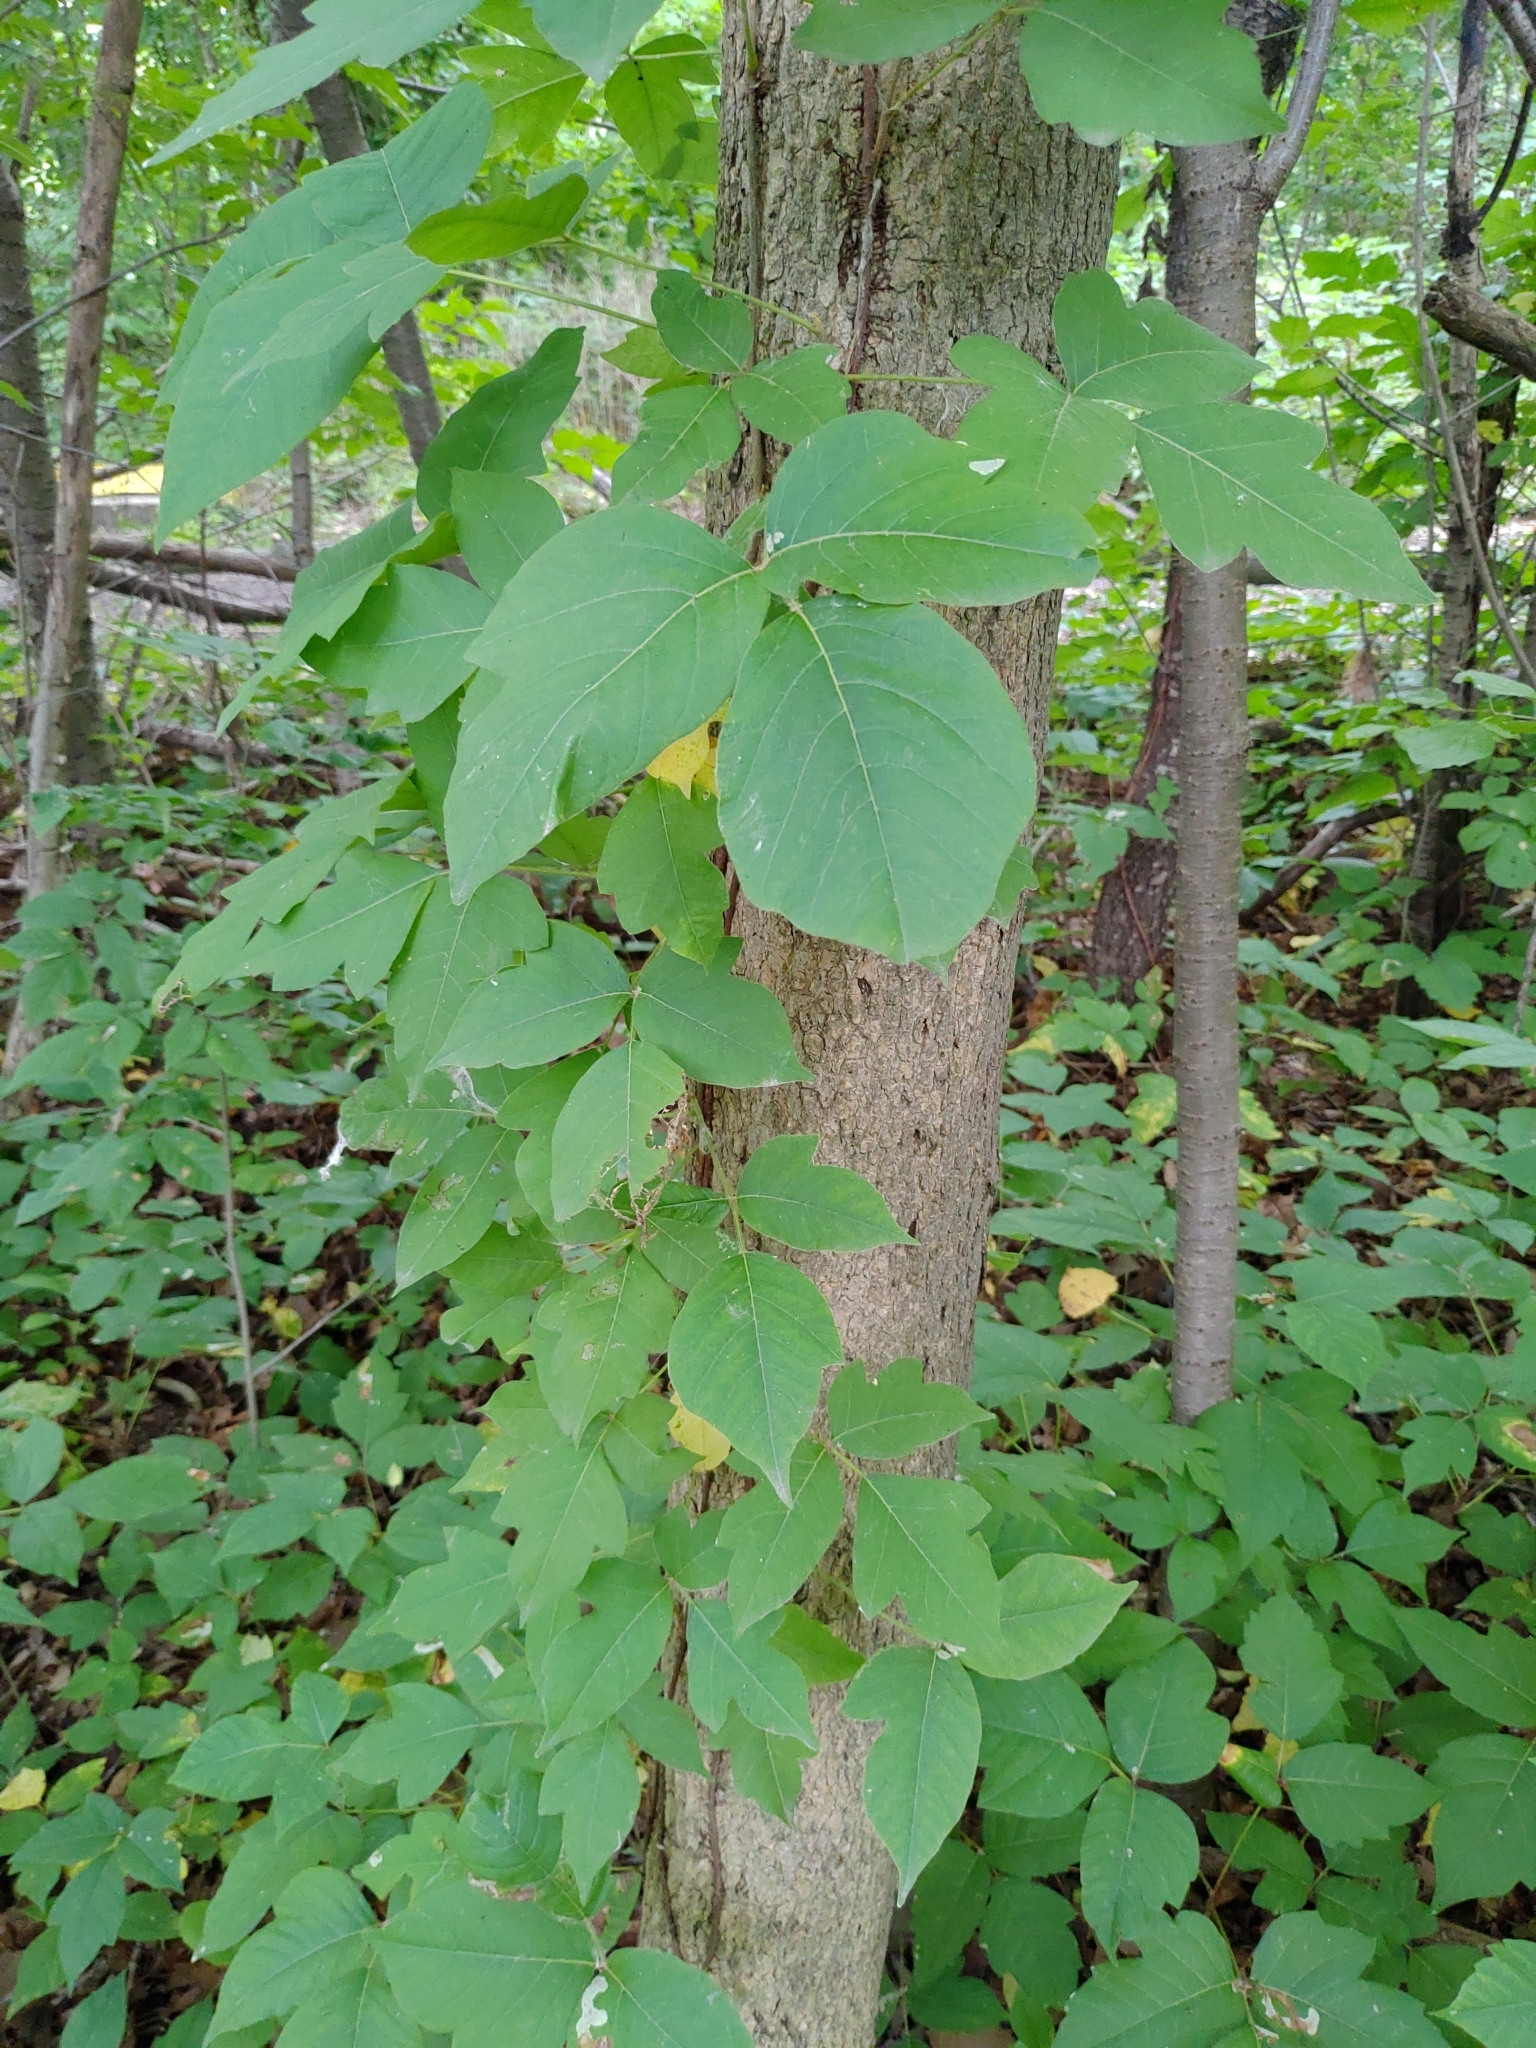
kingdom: Plantae
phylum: Tracheophyta
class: Magnoliopsida
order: Sapindales
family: Anacardiaceae
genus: Toxicodendron
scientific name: Toxicodendron radicans
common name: Poison ivy
